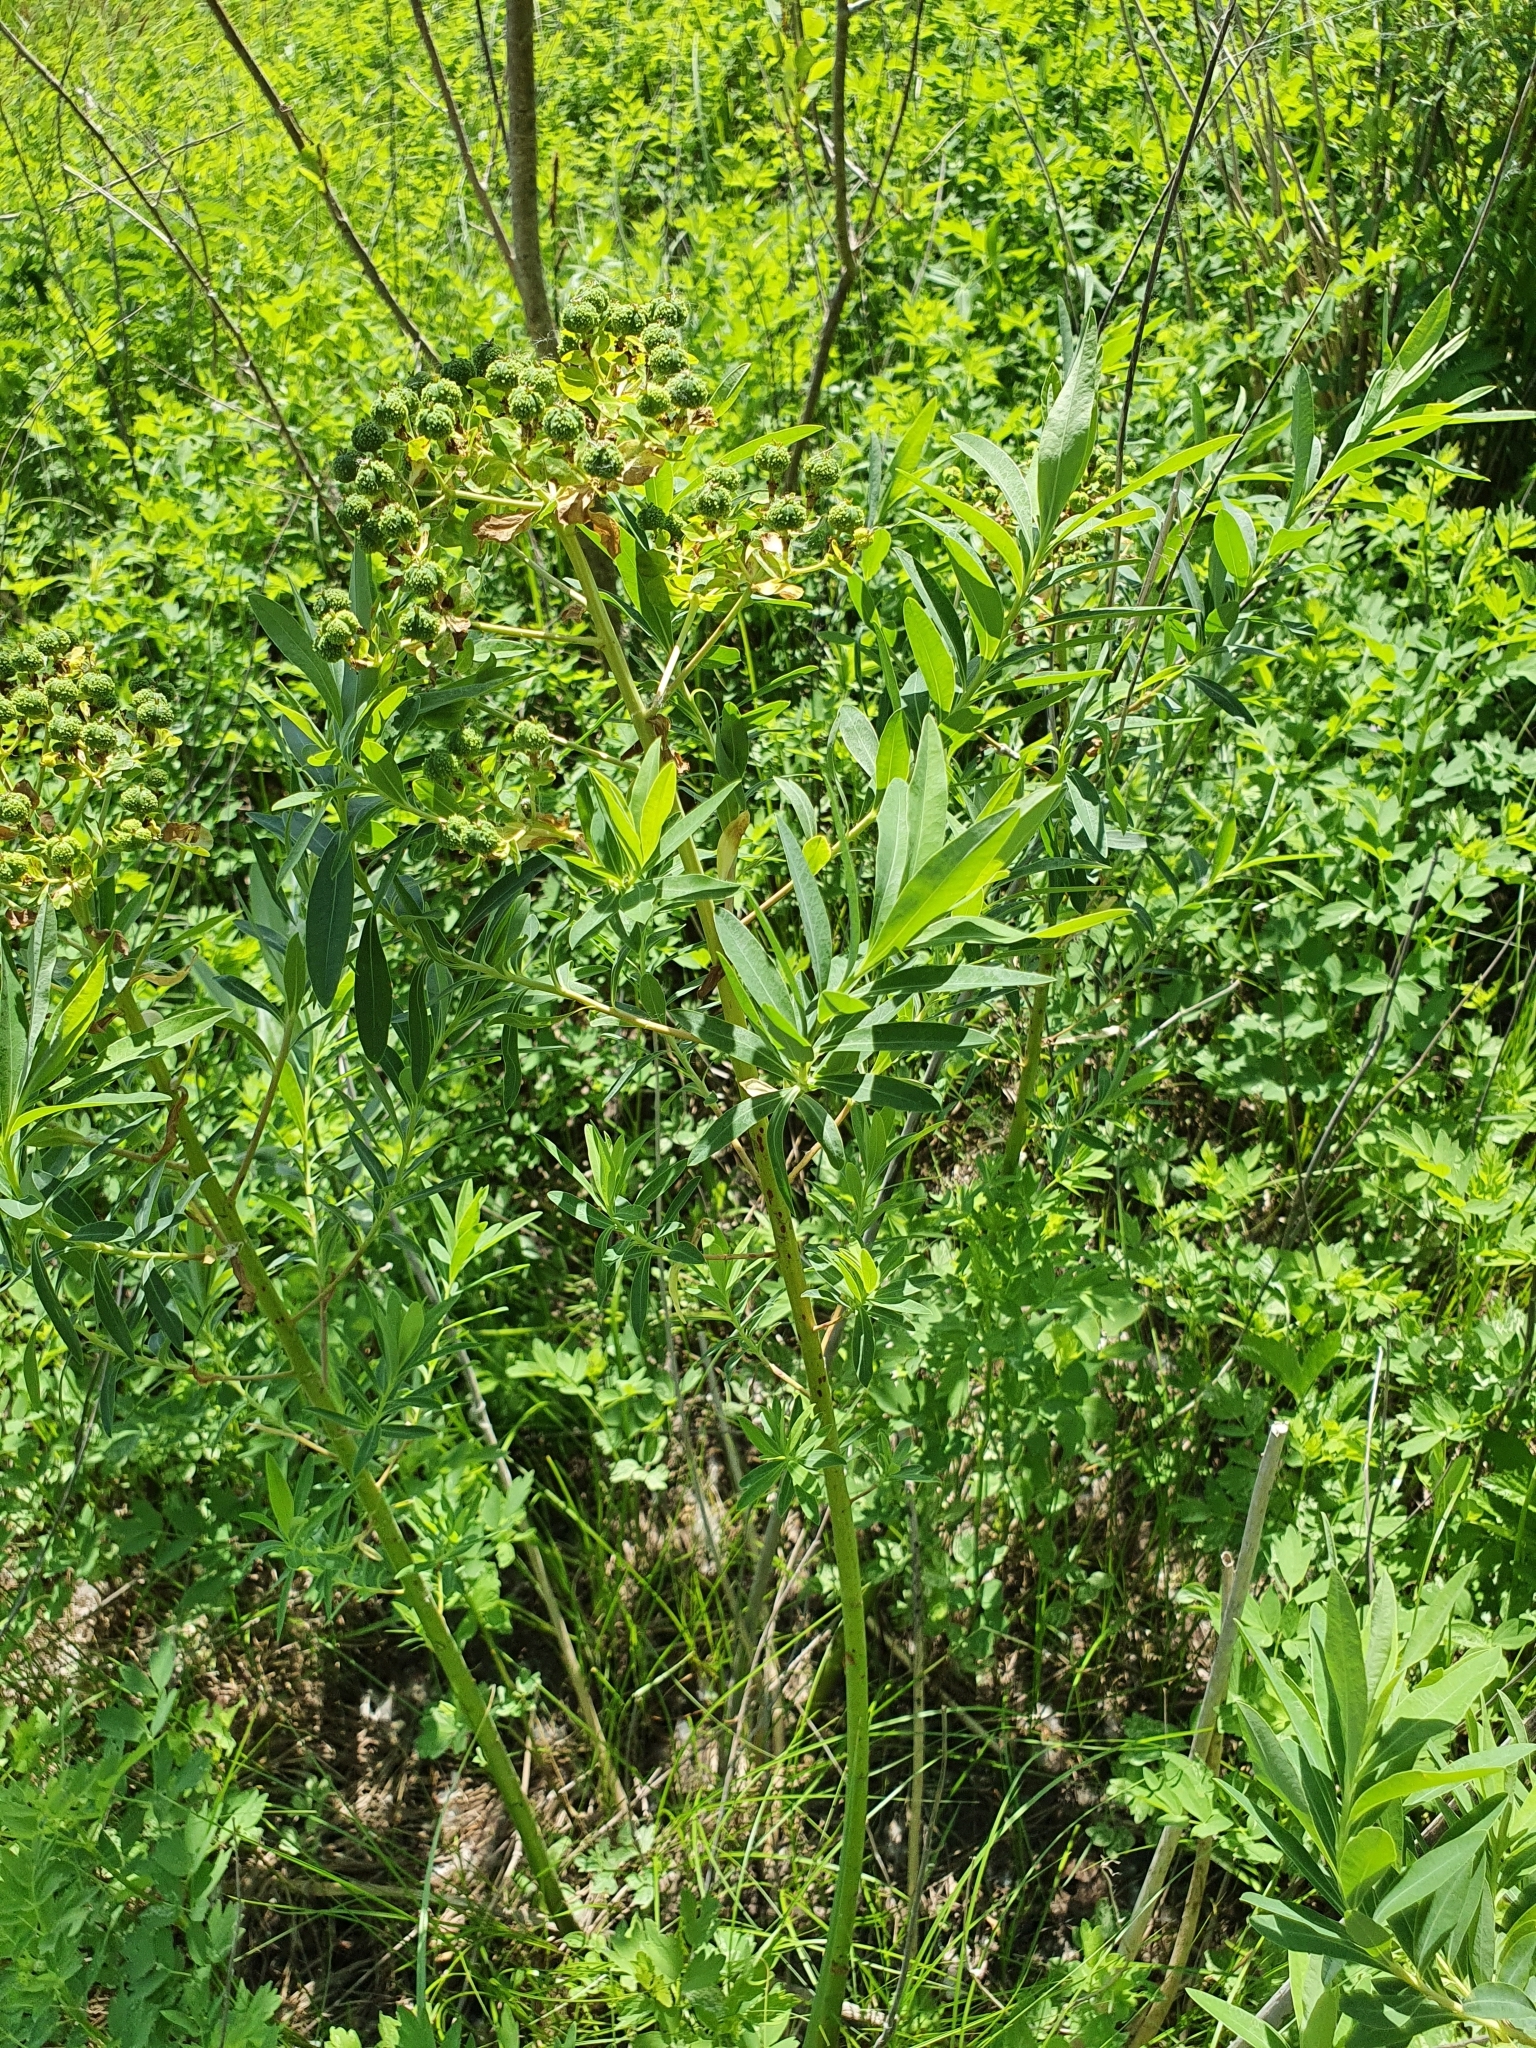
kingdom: Plantae
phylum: Tracheophyta
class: Magnoliopsida
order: Malpighiales
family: Euphorbiaceae
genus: Euphorbia
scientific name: Euphorbia palustris
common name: Marsh spurge
